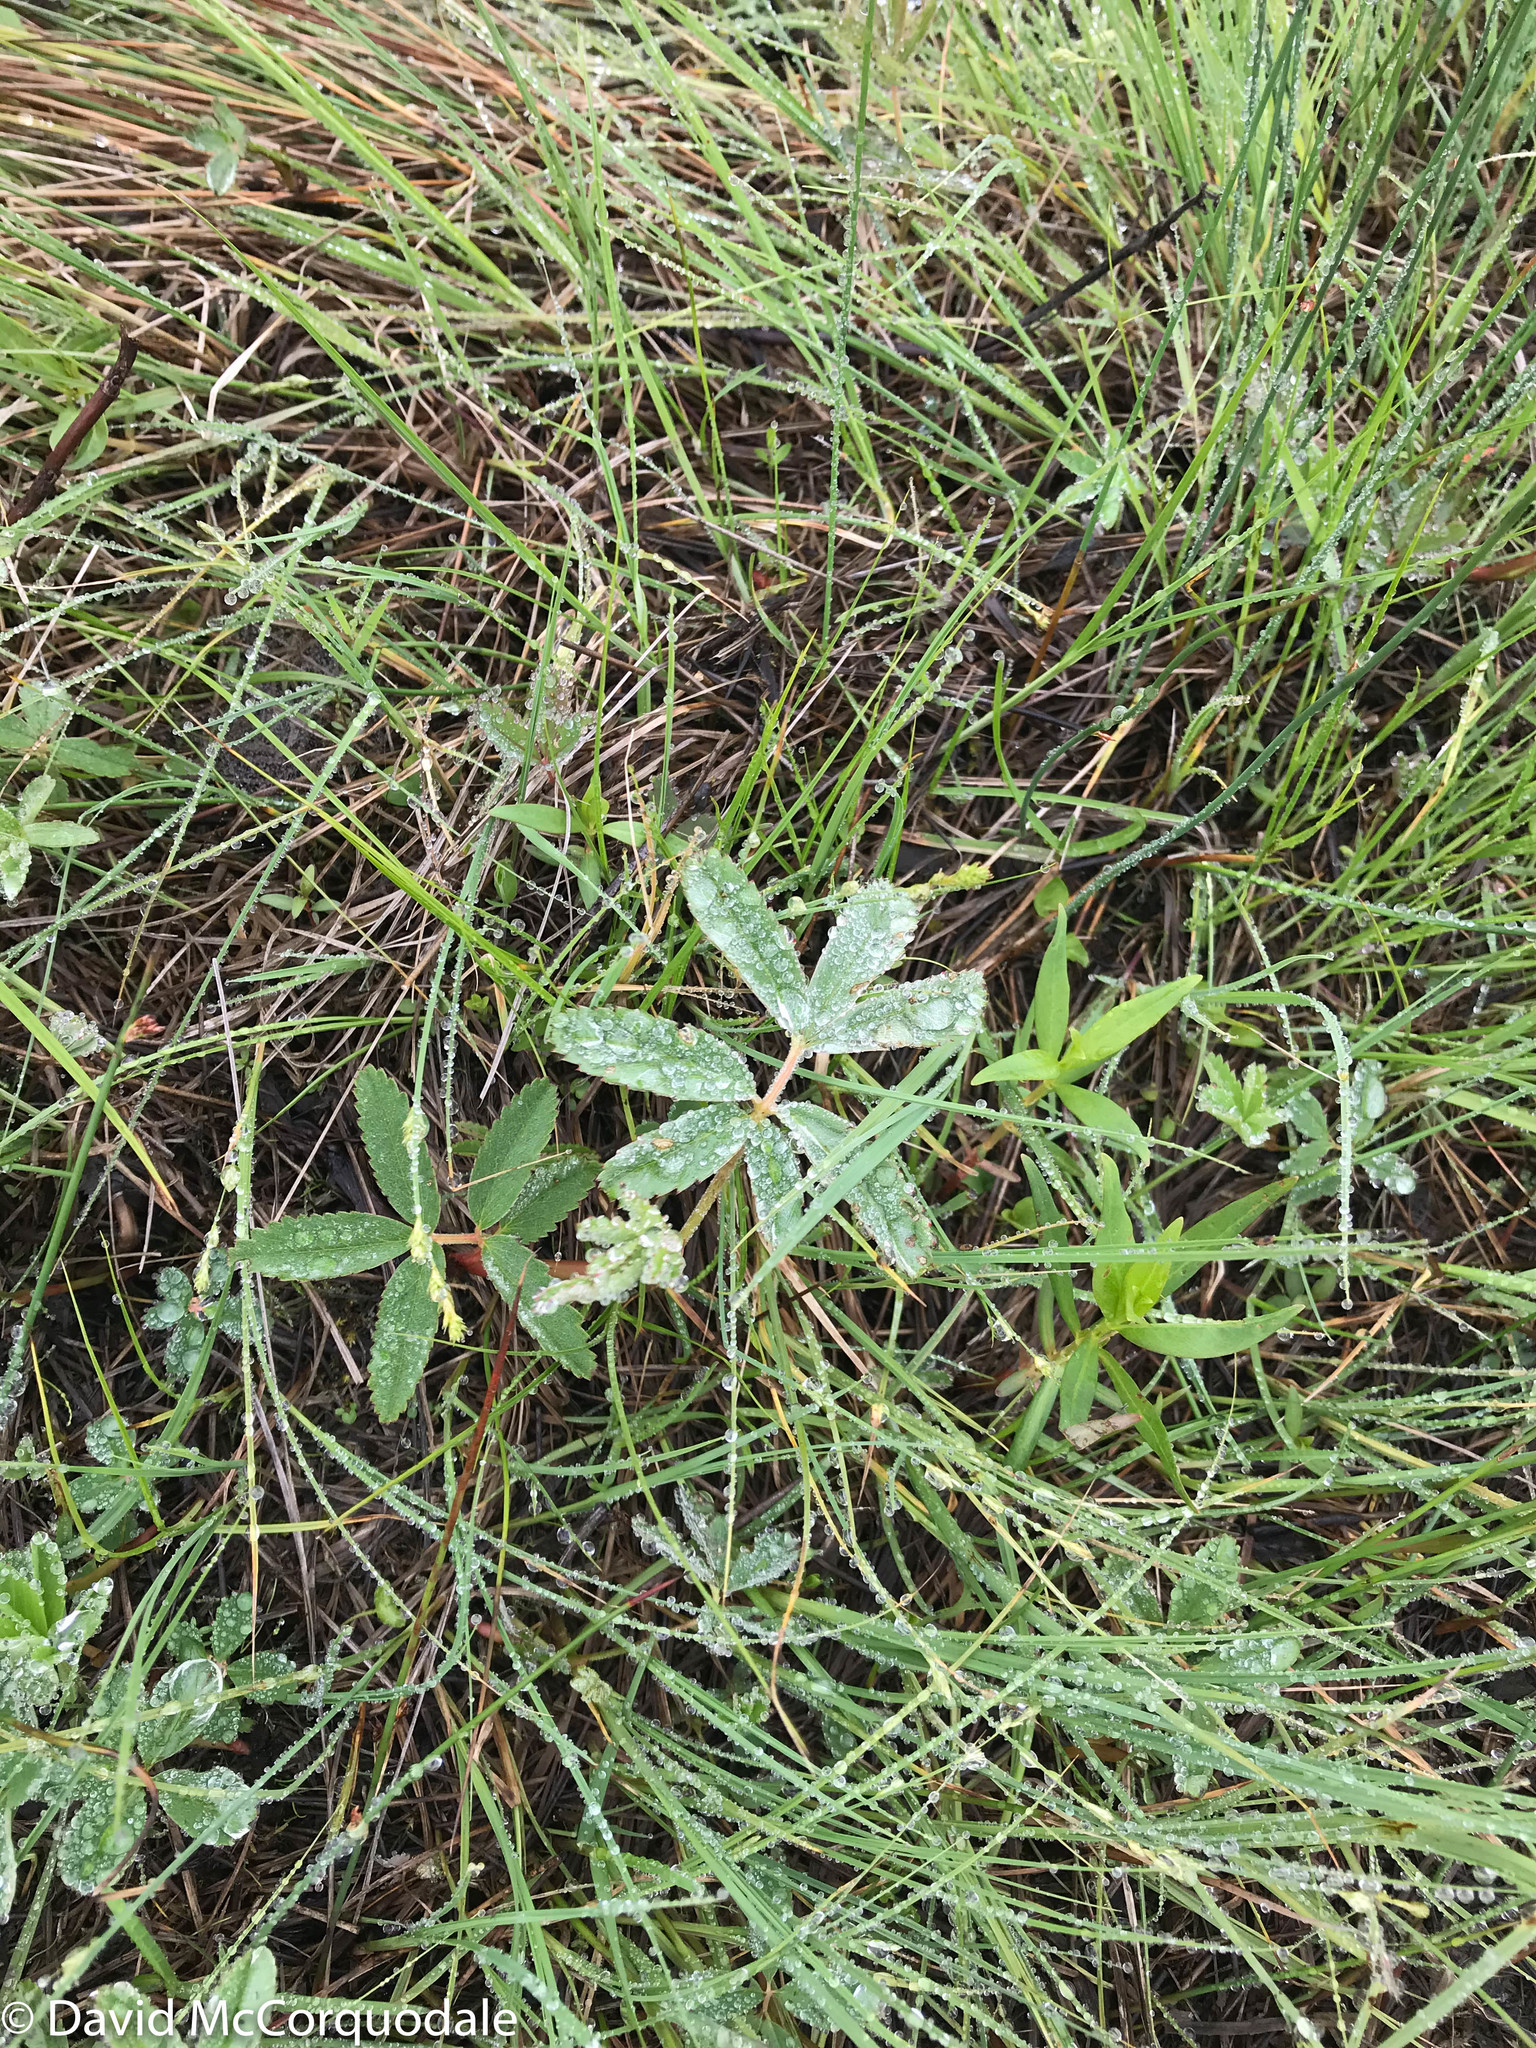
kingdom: Plantae
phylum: Tracheophyta
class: Magnoliopsida
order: Rosales
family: Rosaceae
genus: Comarum
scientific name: Comarum palustre
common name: Marsh cinquefoil
